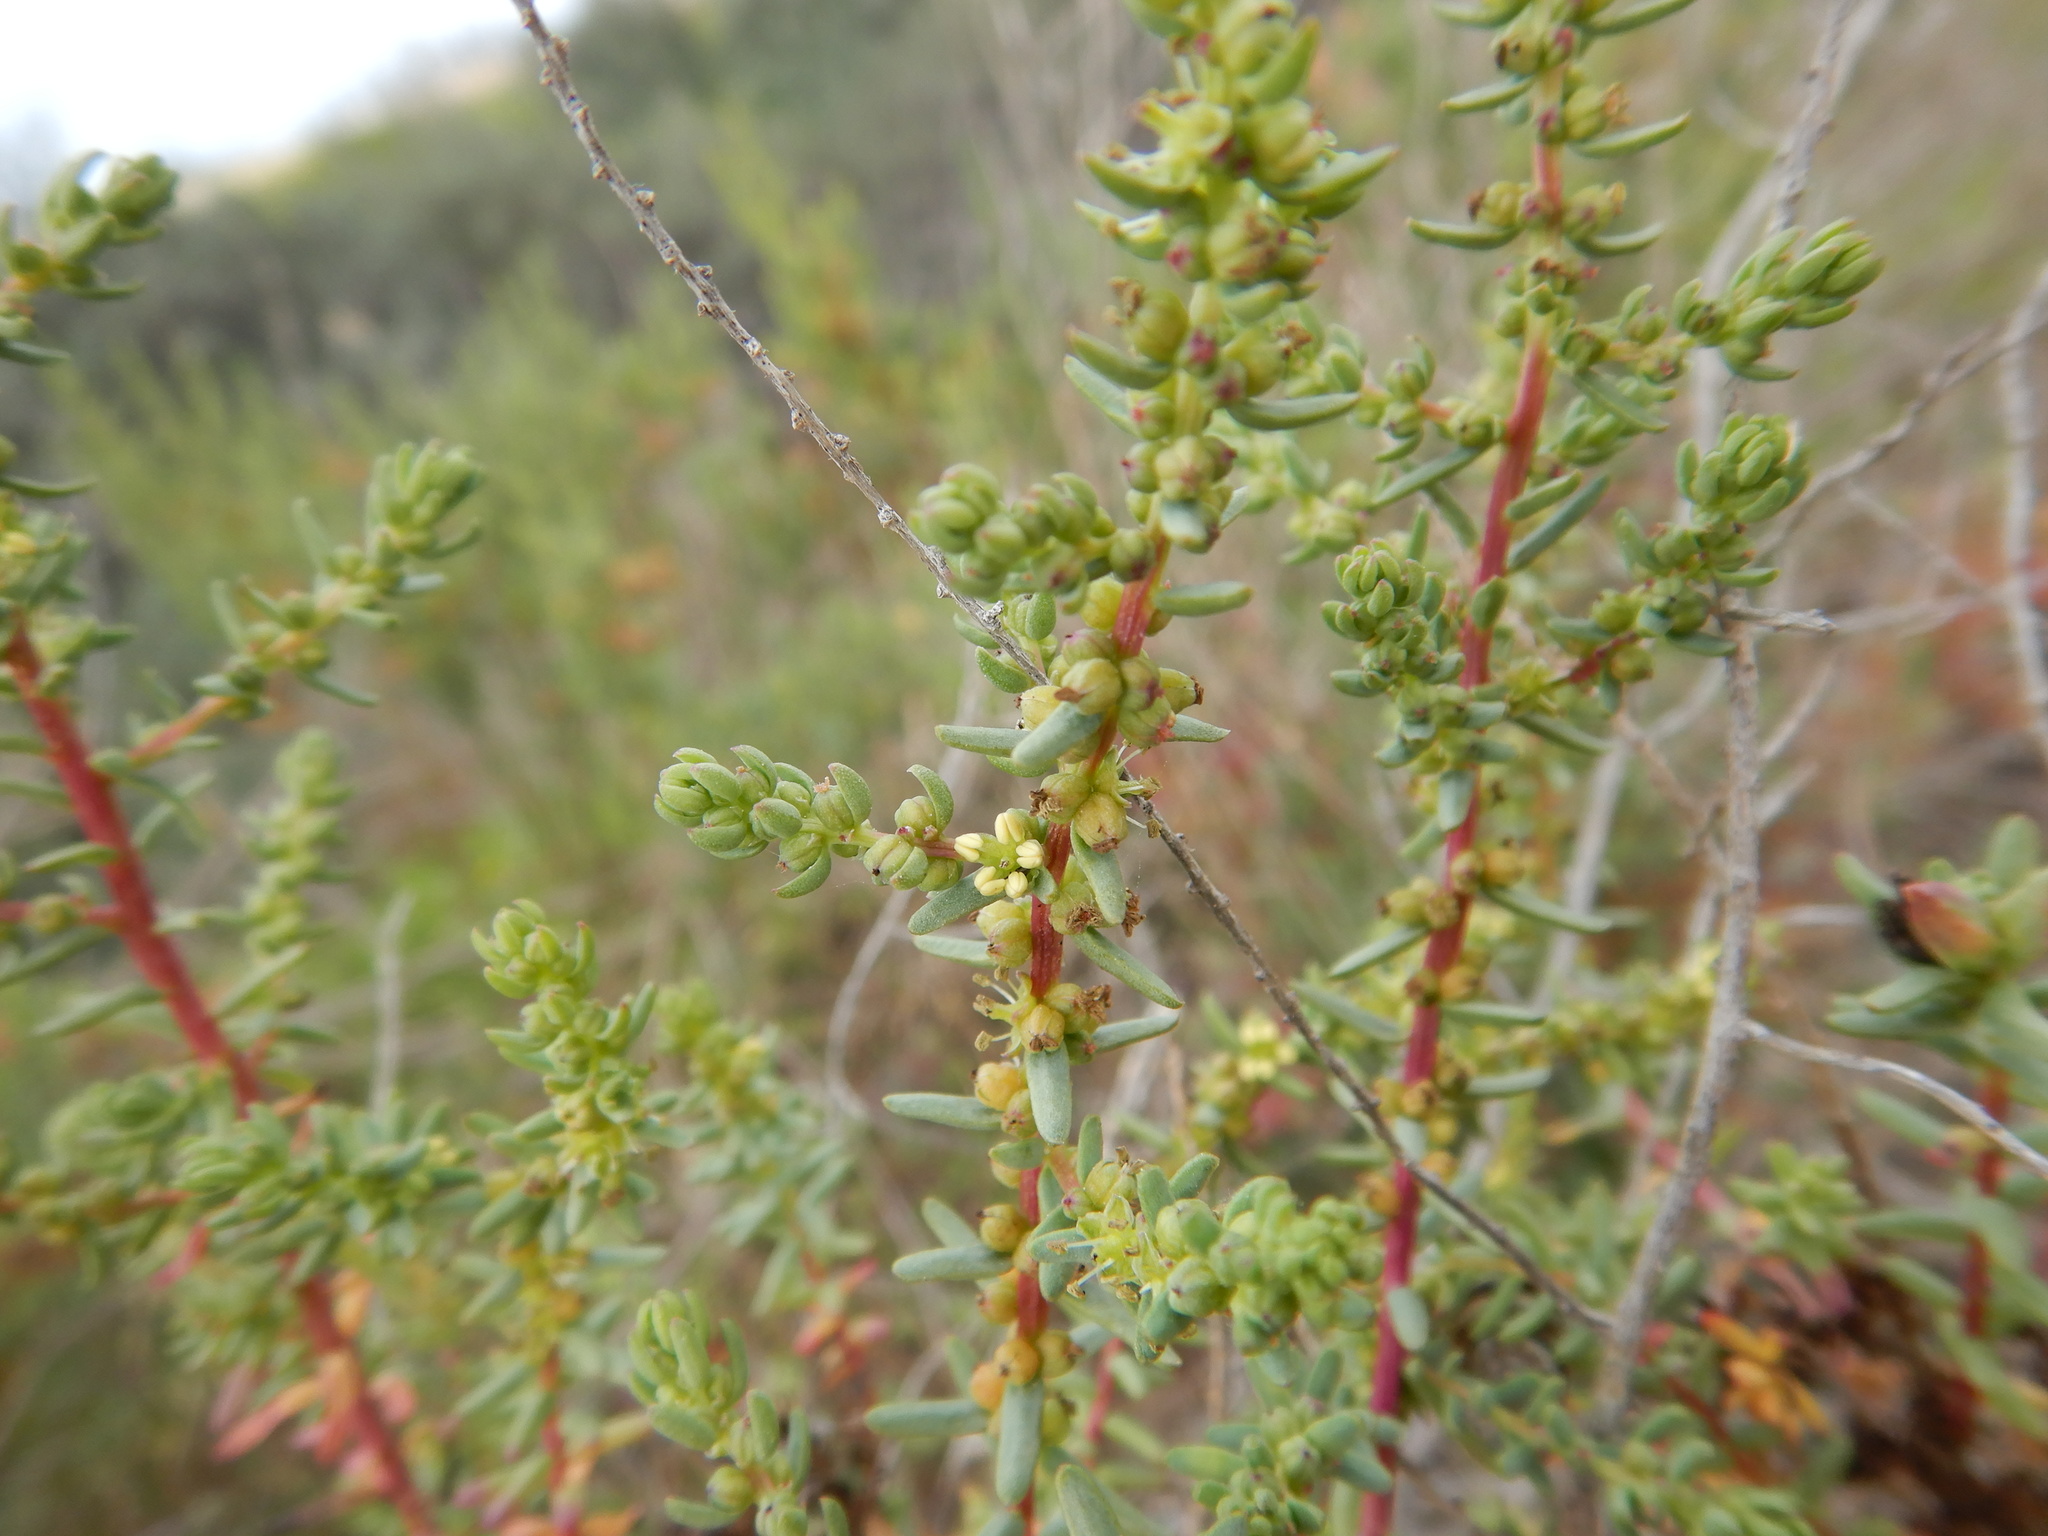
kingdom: Plantae
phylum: Tracheophyta
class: Magnoliopsida
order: Caryophyllales
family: Amaranthaceae
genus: Suaeda
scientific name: Suaeda vera
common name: Shrubby sea-blite
